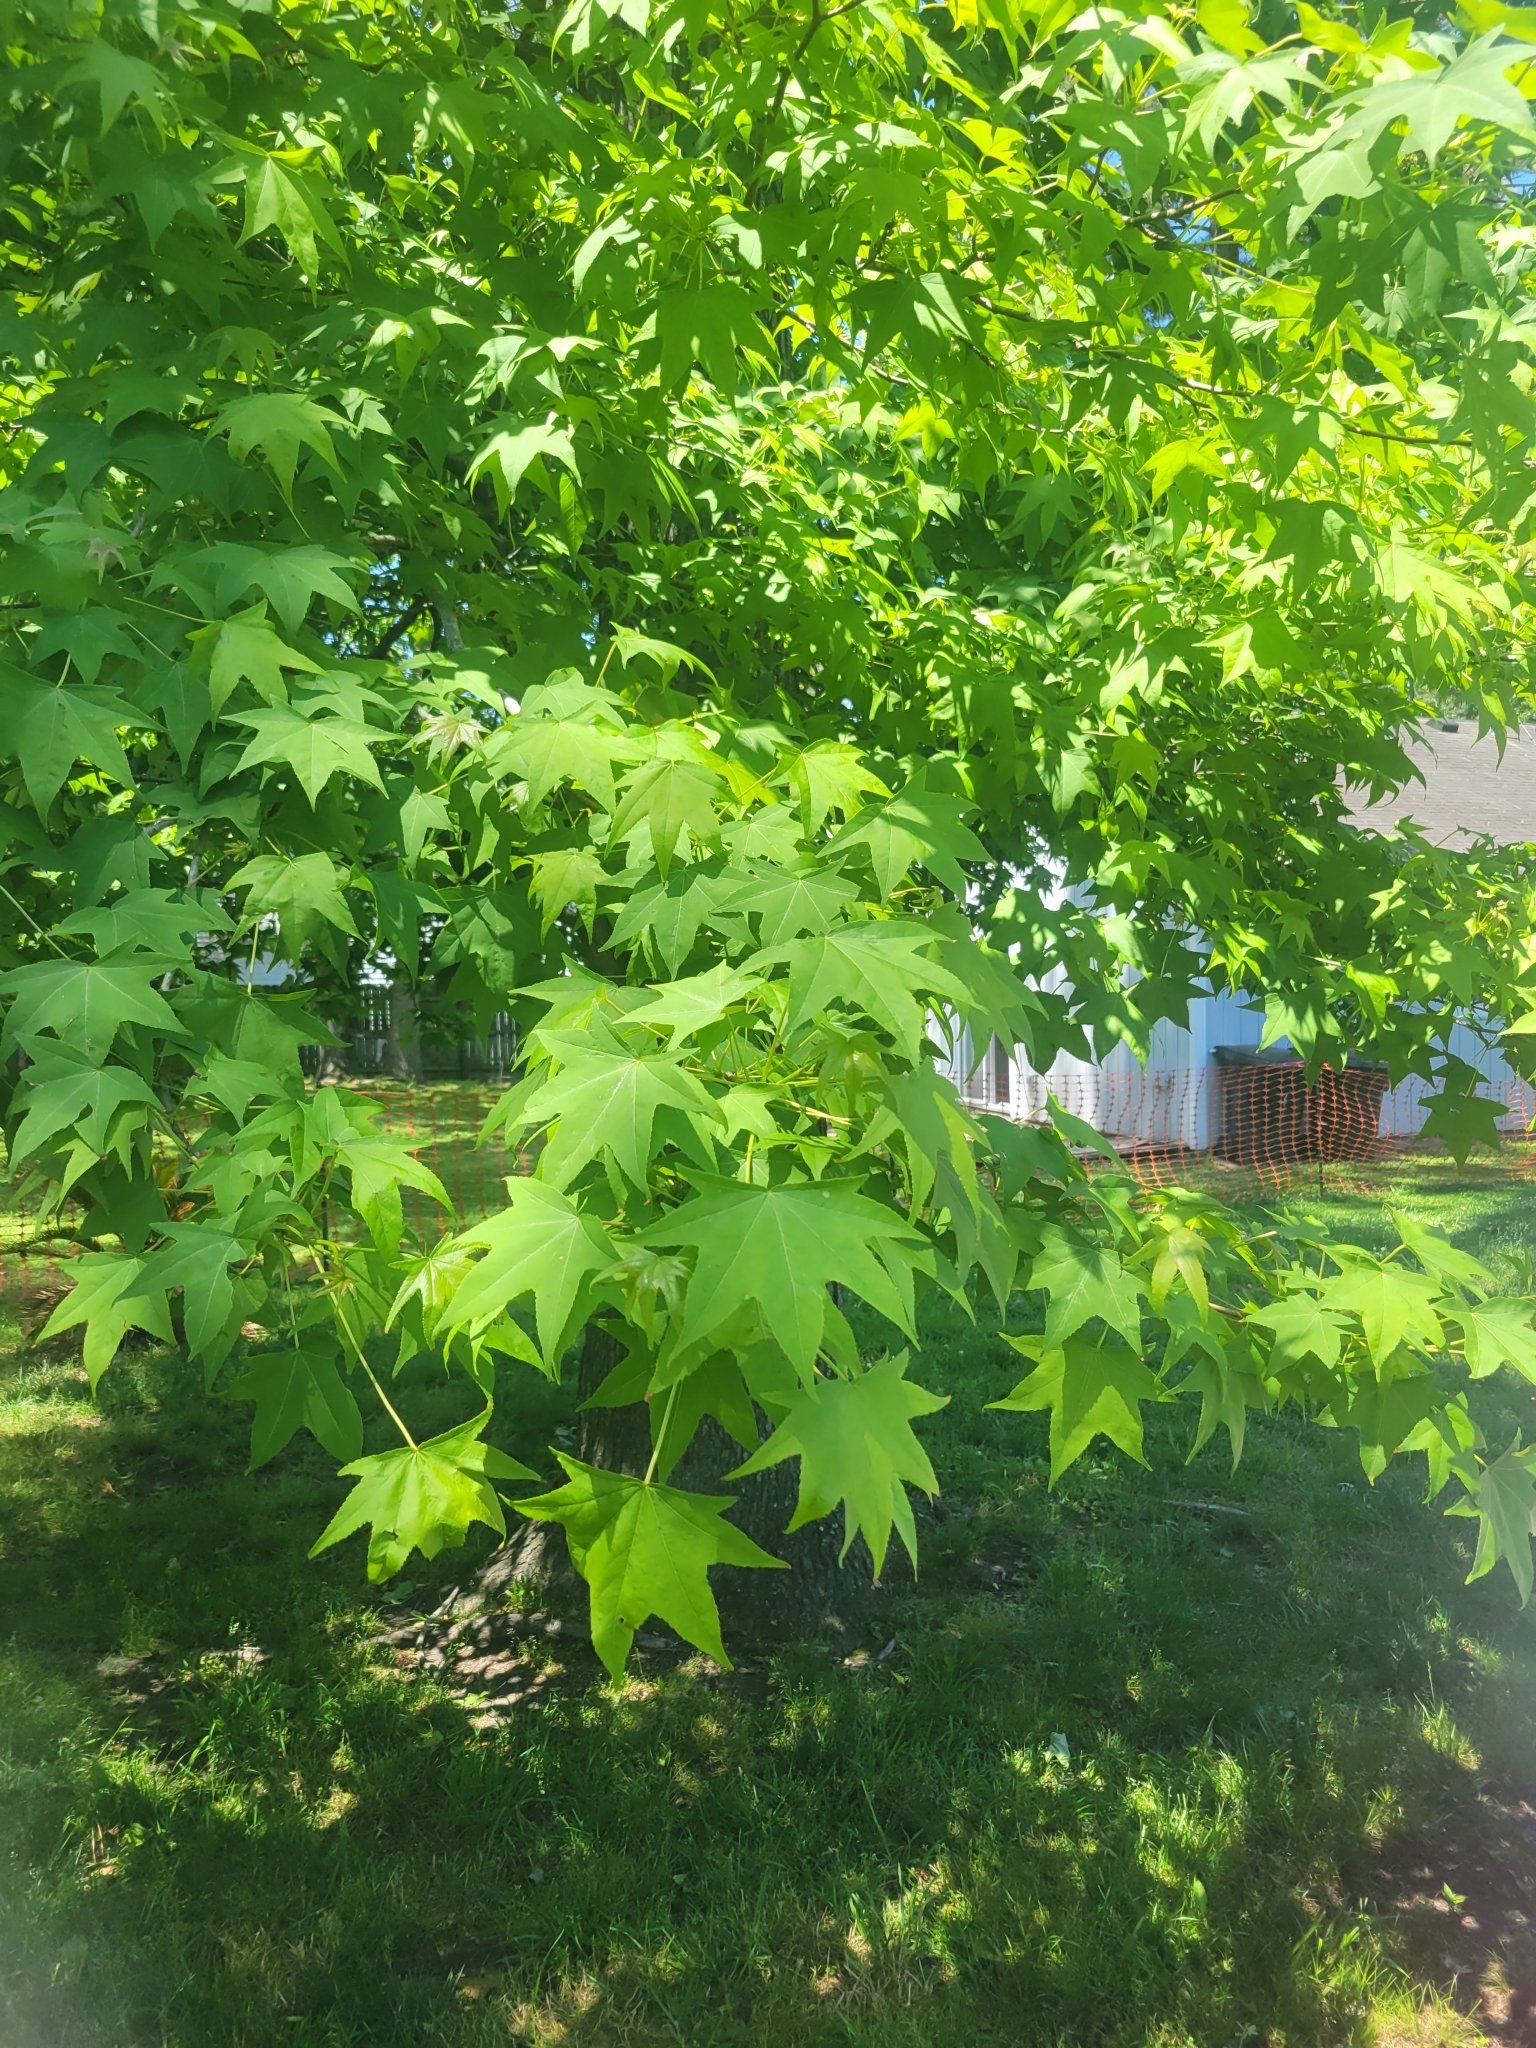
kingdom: Plantae
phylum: Tracheophyta
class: Magnoliopsida
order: Saxifragales
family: Altingiaceae
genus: Liquidambar
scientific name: Liquidambar styraciflua
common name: Sweet gum
